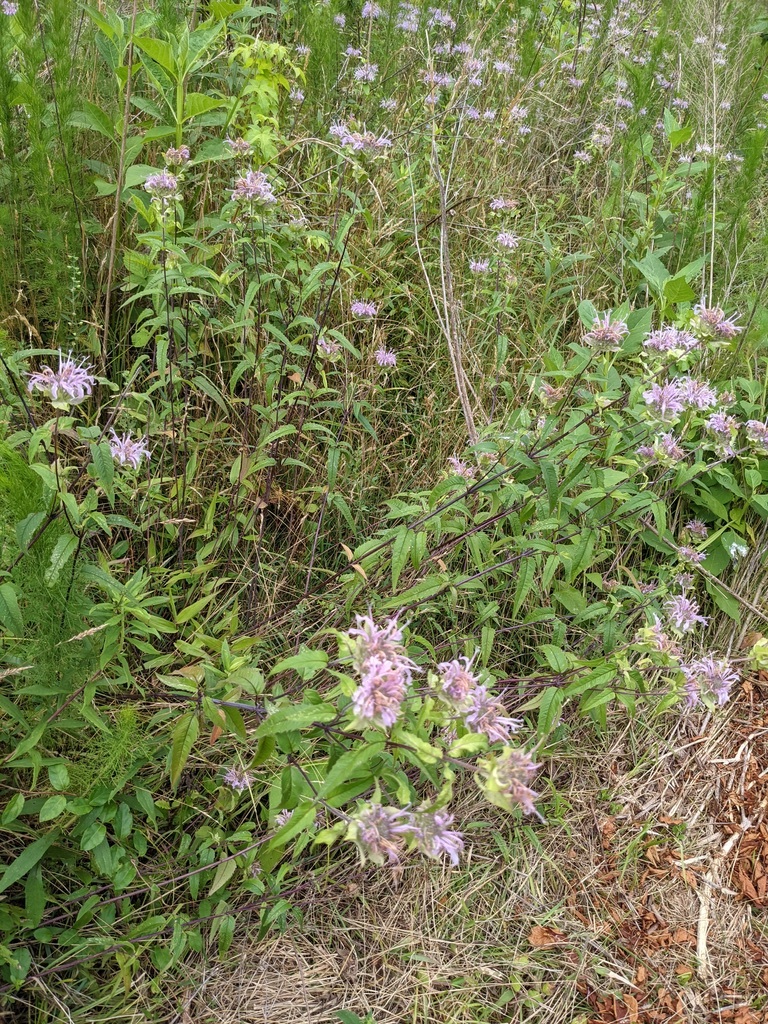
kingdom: Plantae
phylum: Tracheophyta
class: Magnoliopsida
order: Lamiales
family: Lamiaceae
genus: Monarda
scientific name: Monarda fistulosa
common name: Purple beebalm
